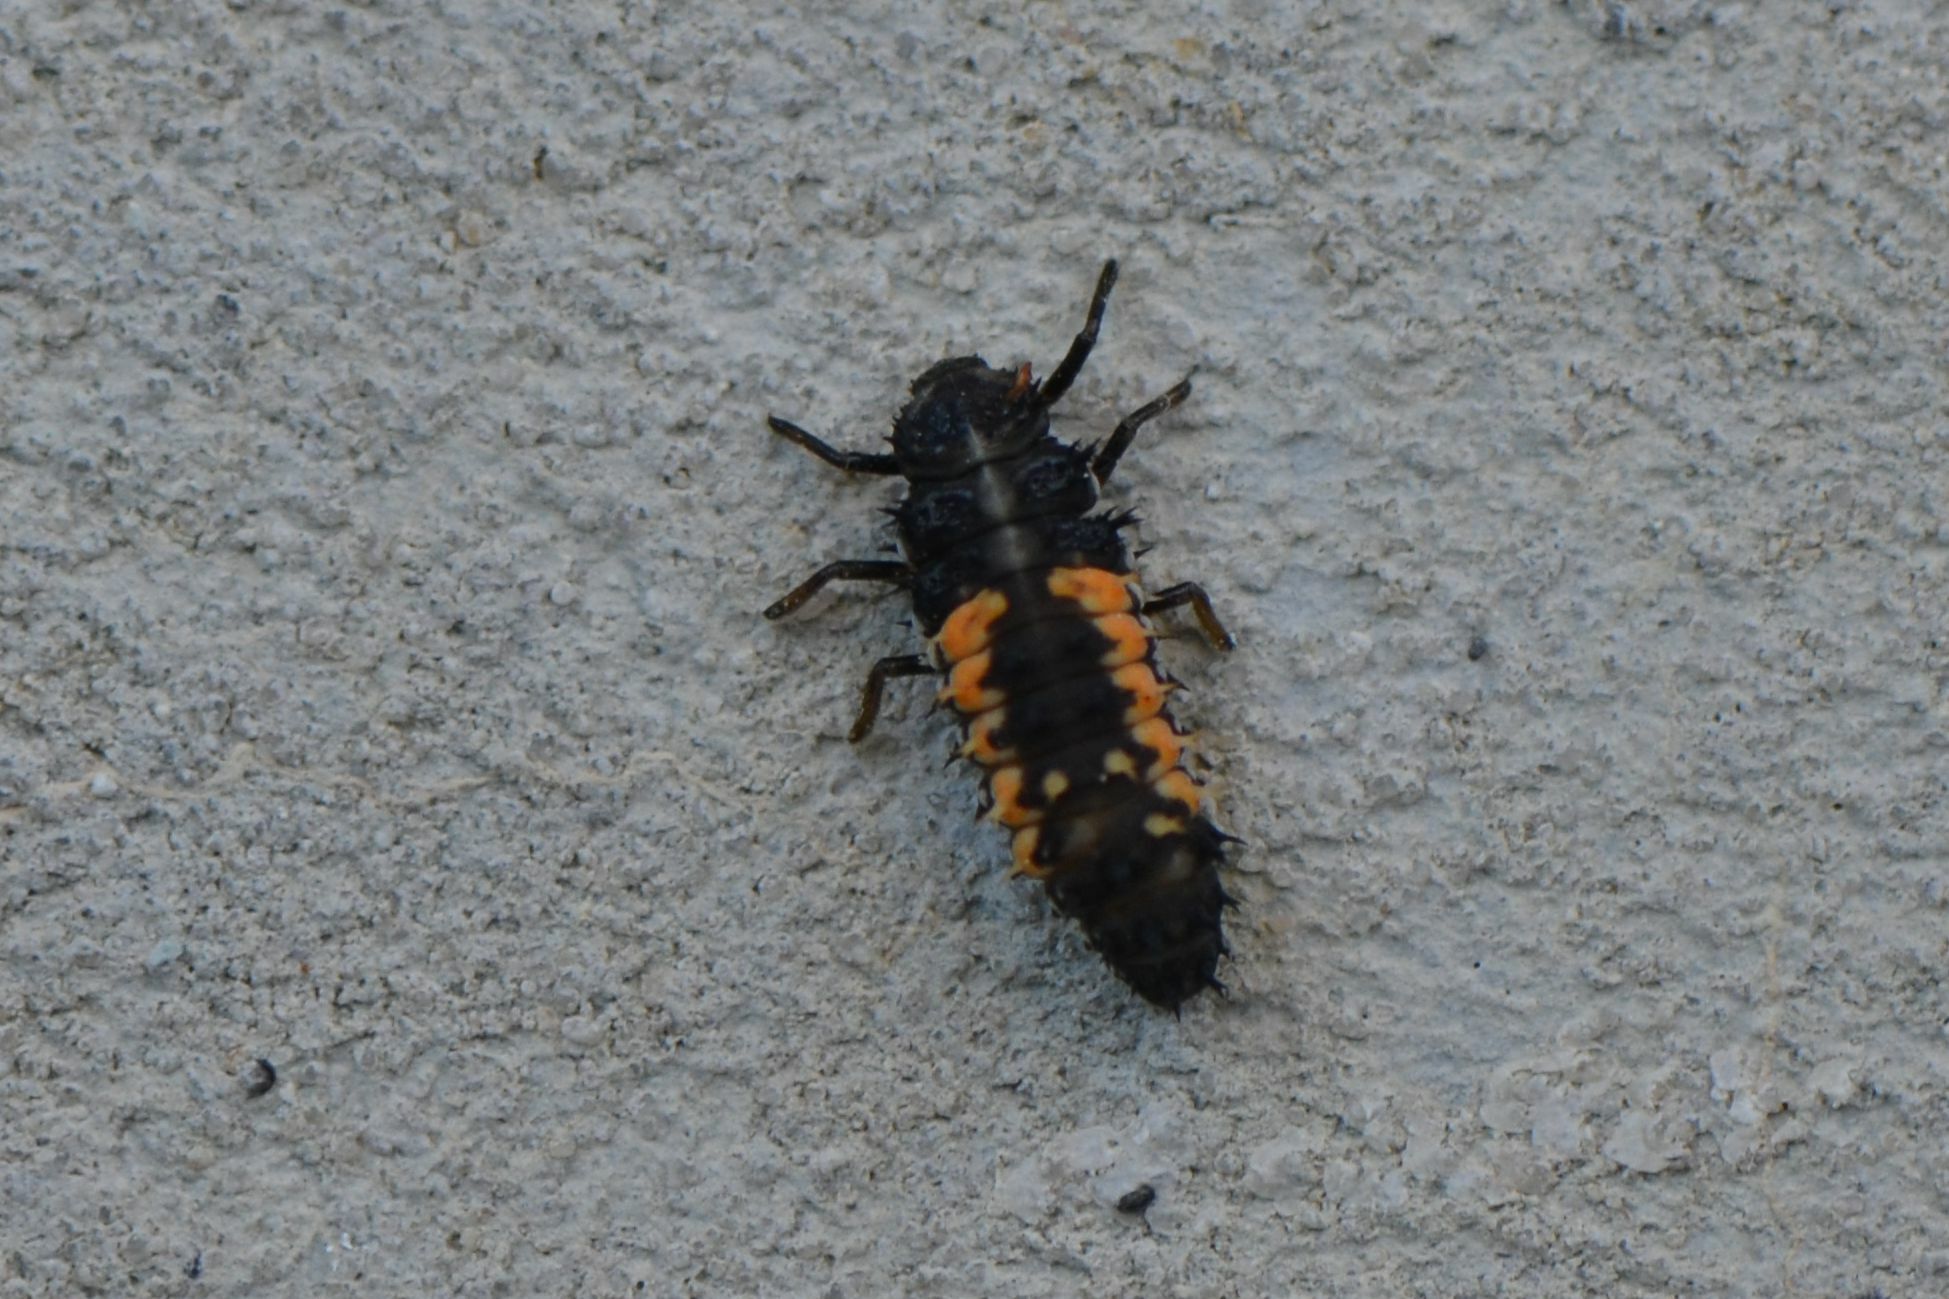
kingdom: Animalia
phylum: Arthropoda
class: Insecta
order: Coleoptera
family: Coccinellidae
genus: Harmonia
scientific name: Harmonia axyridis
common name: Harlequin ladybird
